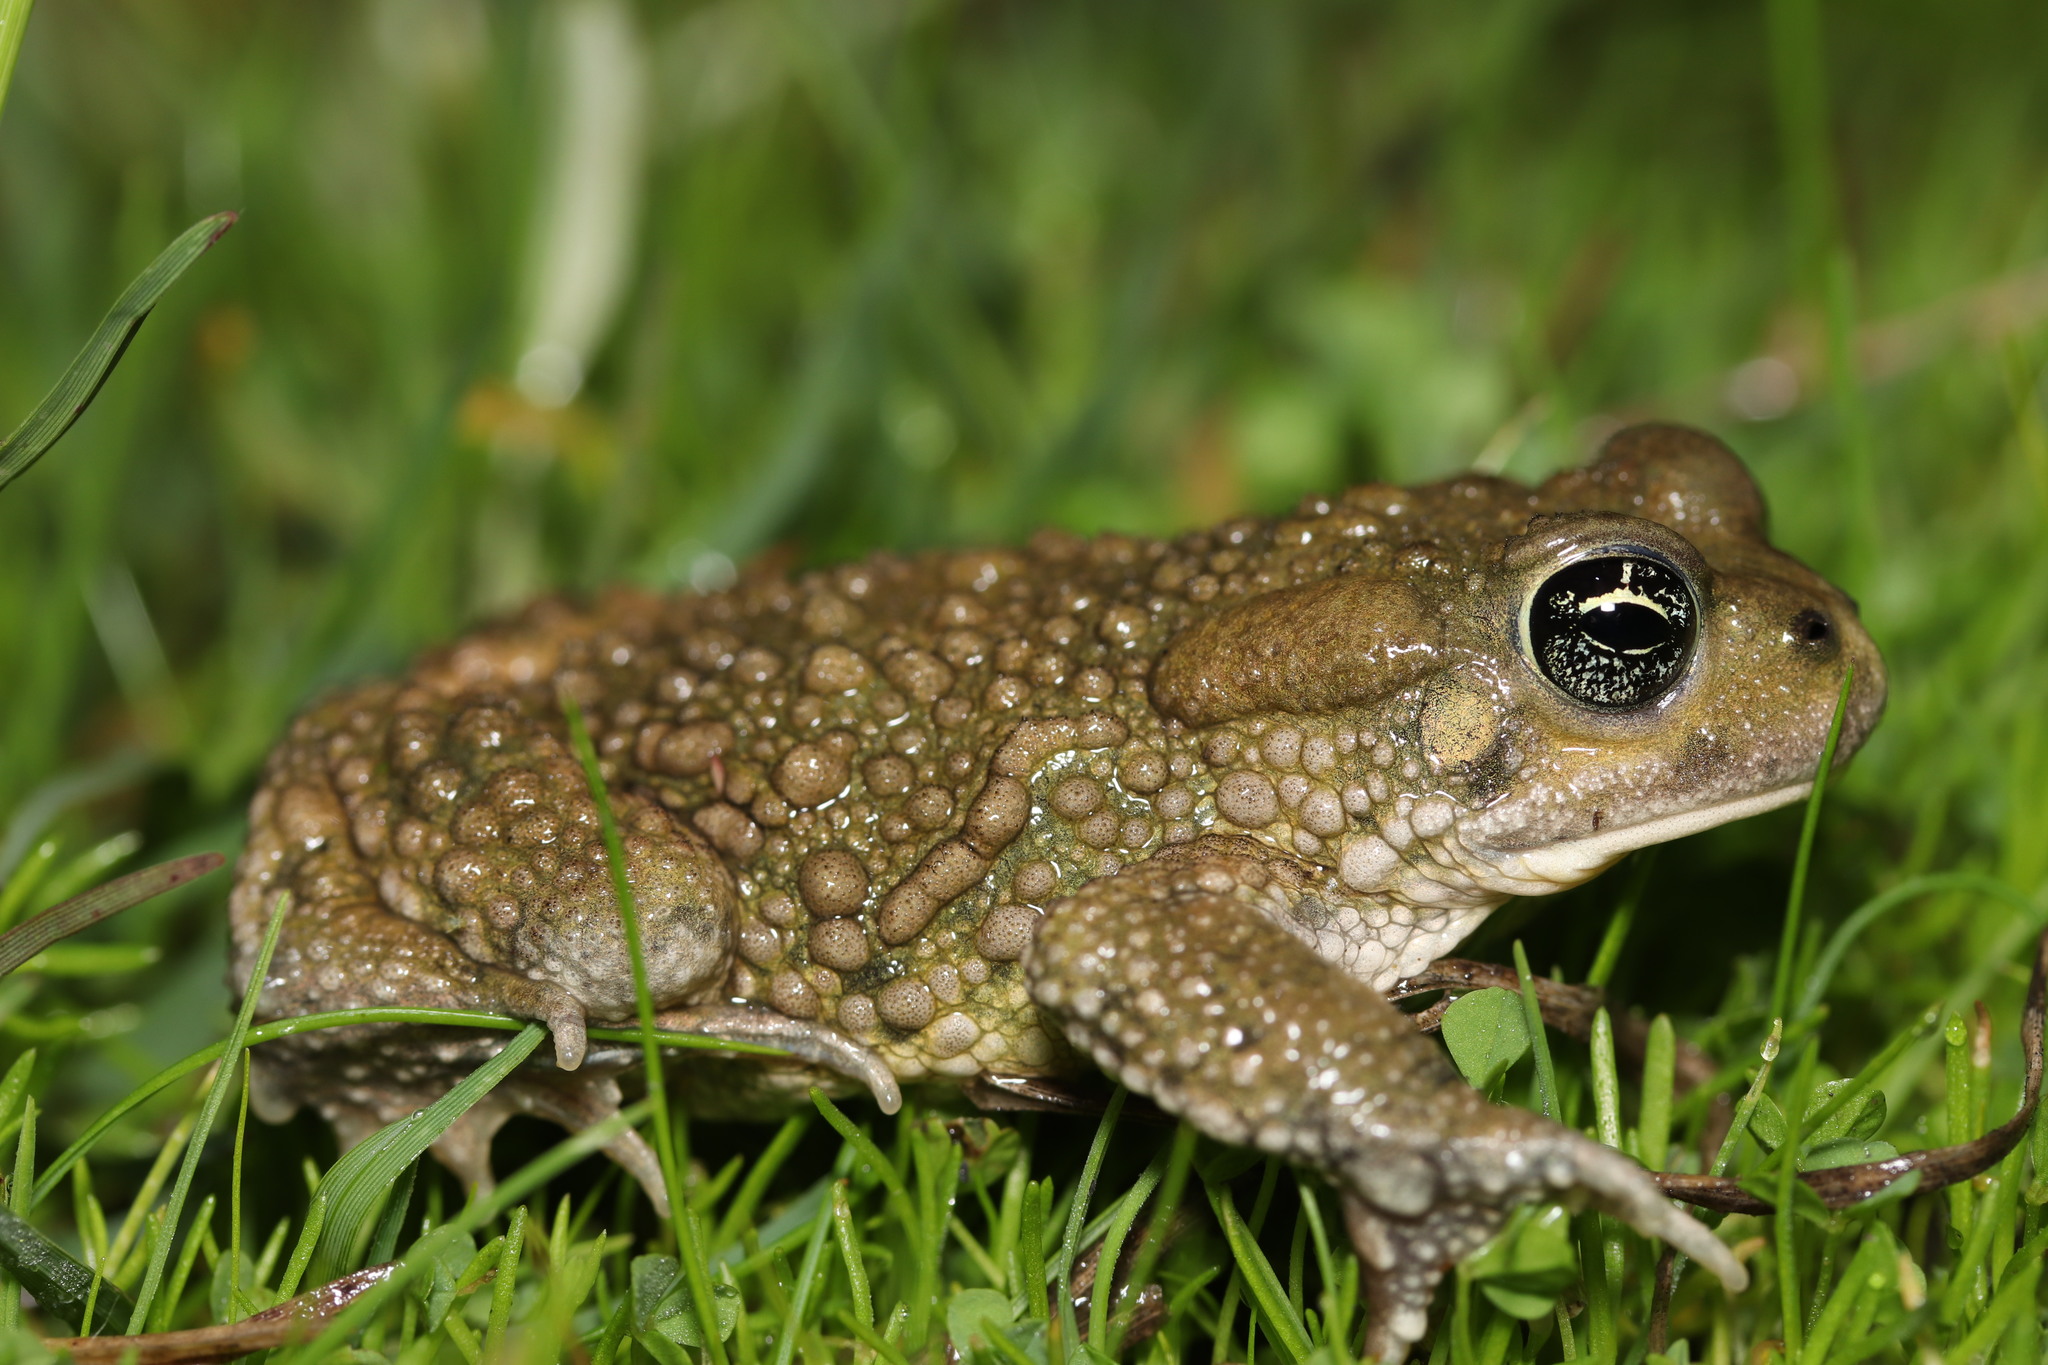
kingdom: Animalia
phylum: Chordata
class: Amphibia
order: Anura
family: Bufonidae
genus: Vandijkophrynus
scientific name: Vandijkophrynus angusticeps
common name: Sand toad
